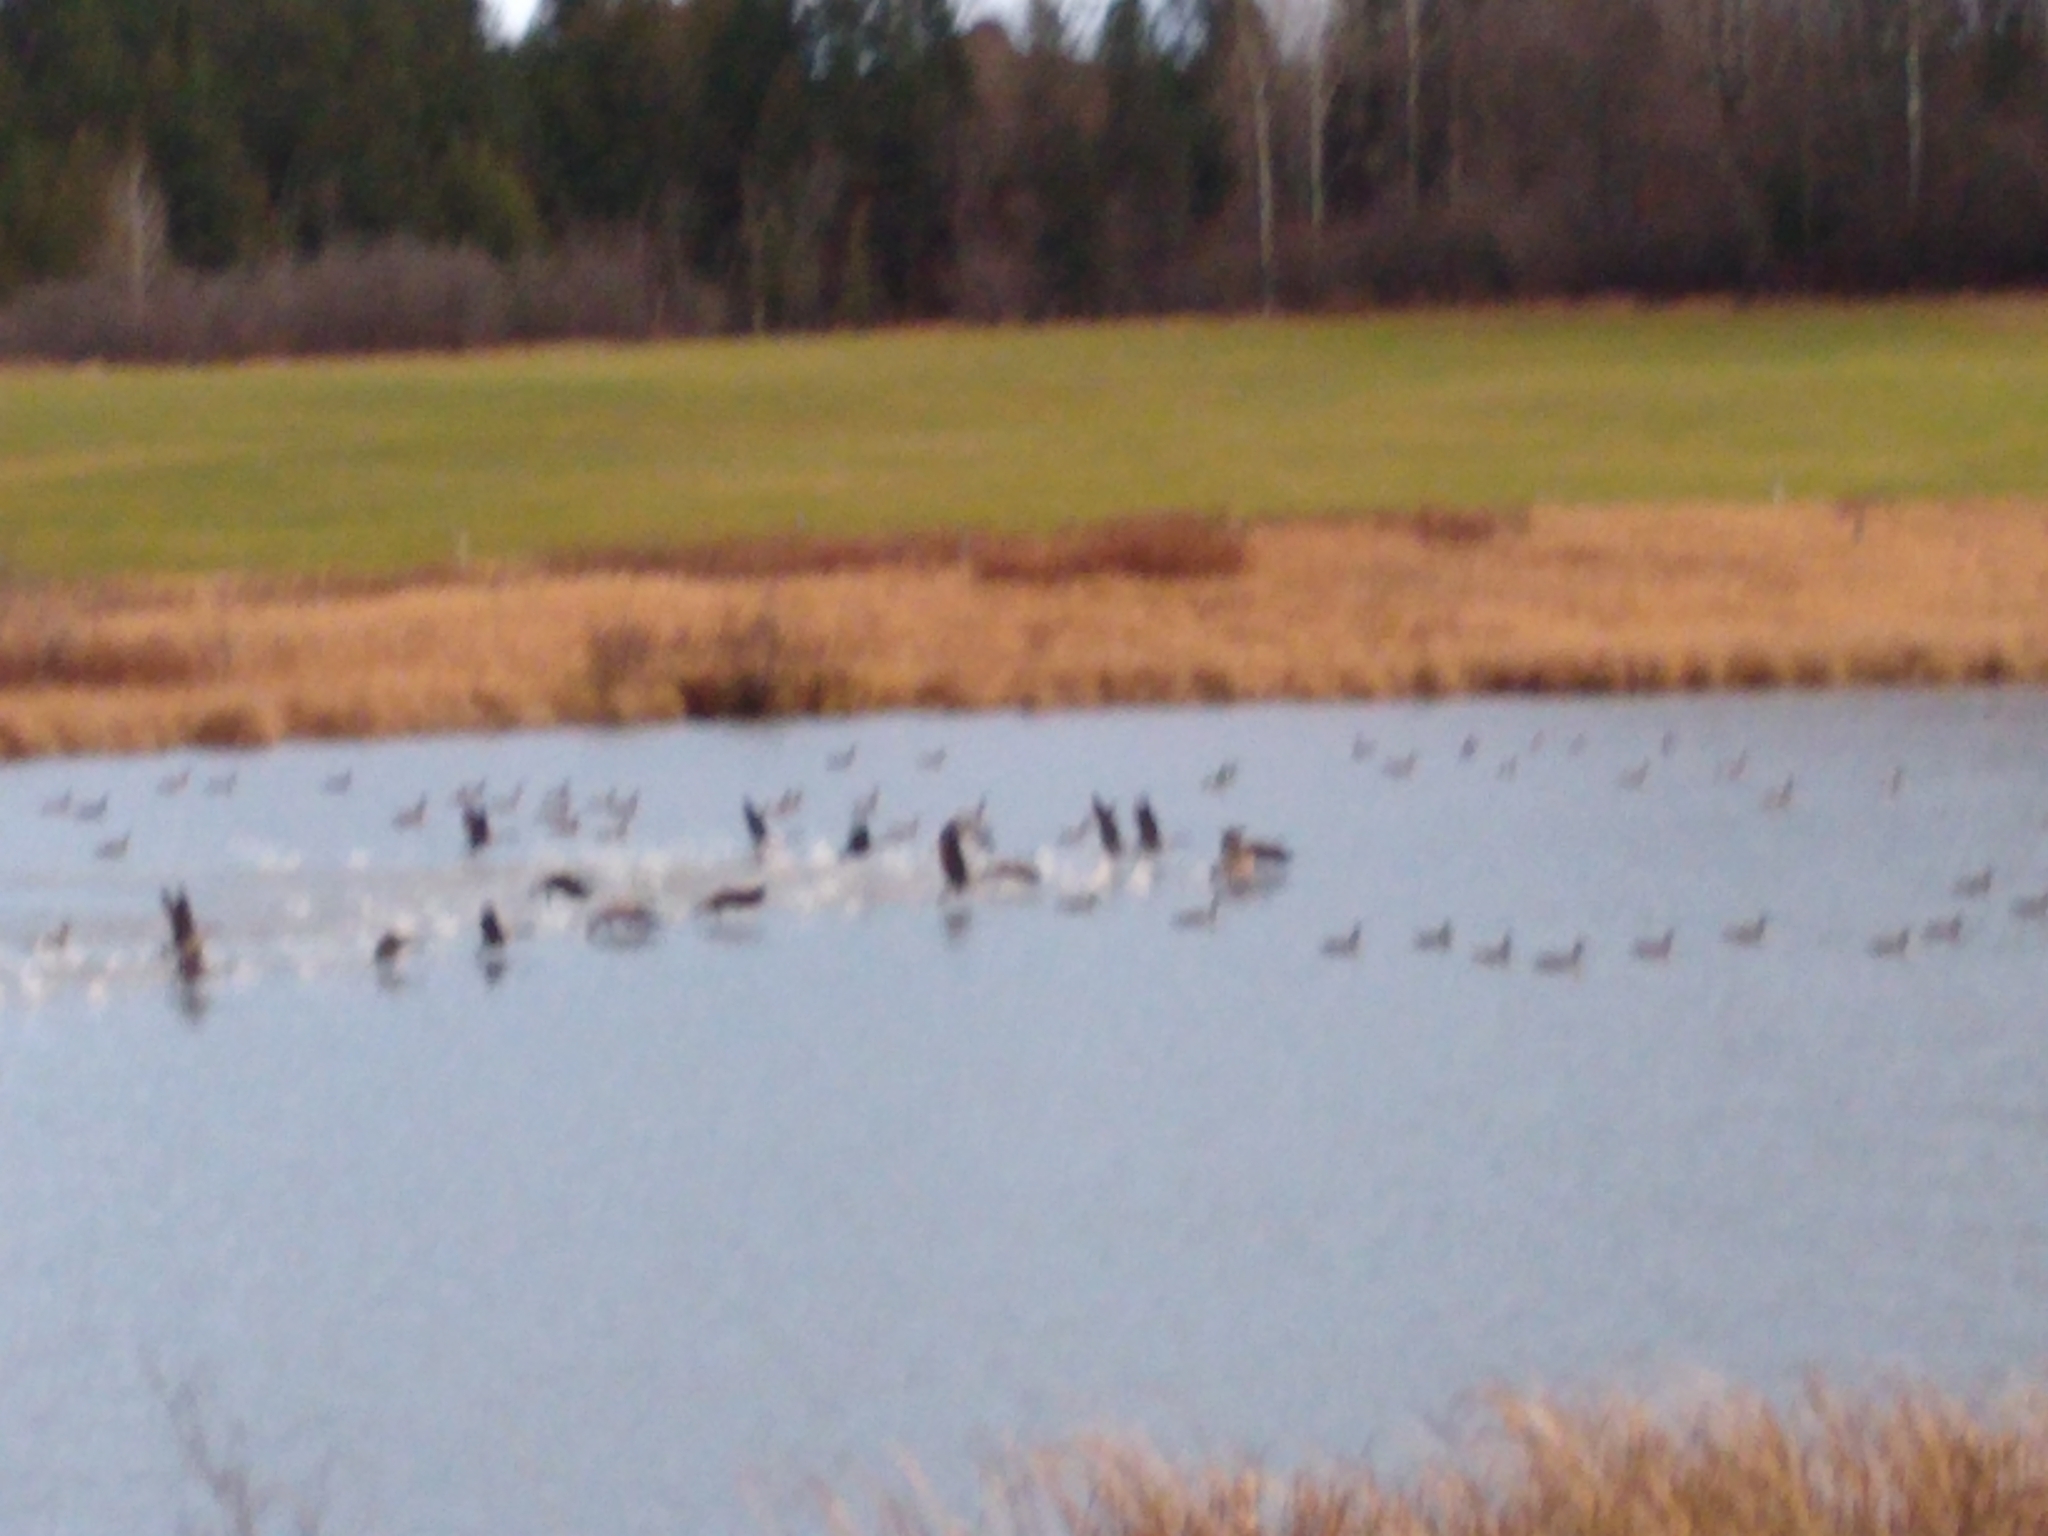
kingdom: Animalia
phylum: Chordata
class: Aves
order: Anseriformes
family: Anatidae
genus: Branta
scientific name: Branta canadensis
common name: Canada goose
